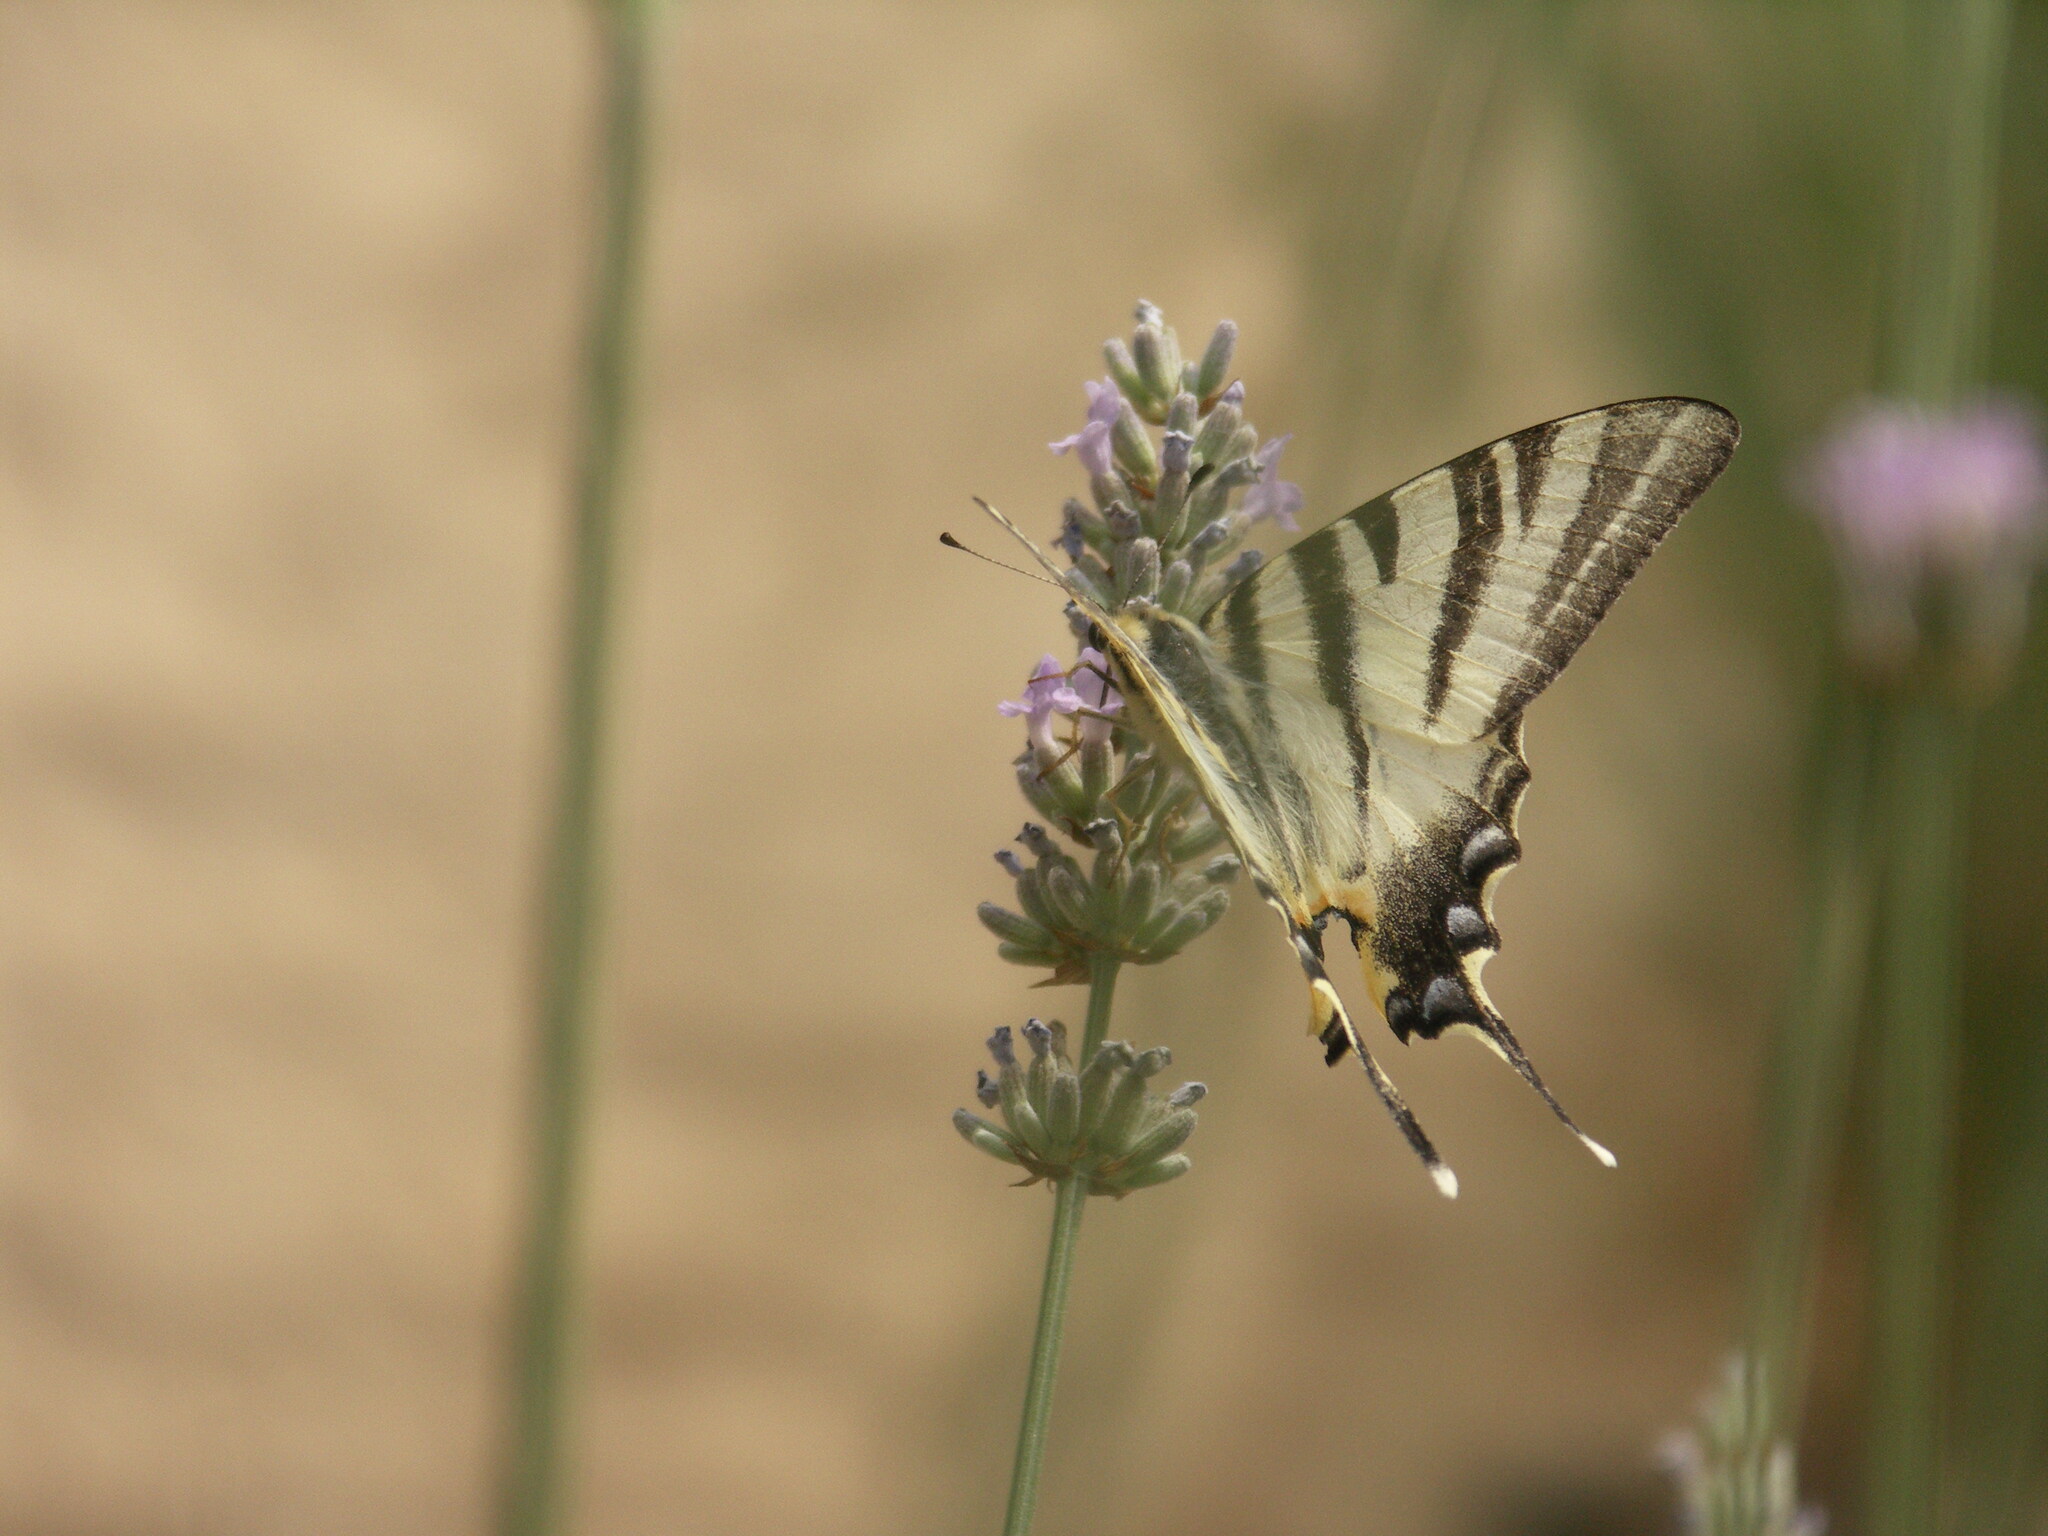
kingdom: Animalia
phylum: Arthropoda
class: Insecta
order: Lepidoptera
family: Papilionidae
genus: Iphiclides
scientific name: Iphiclides podalirius
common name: Scarce swallowtail
